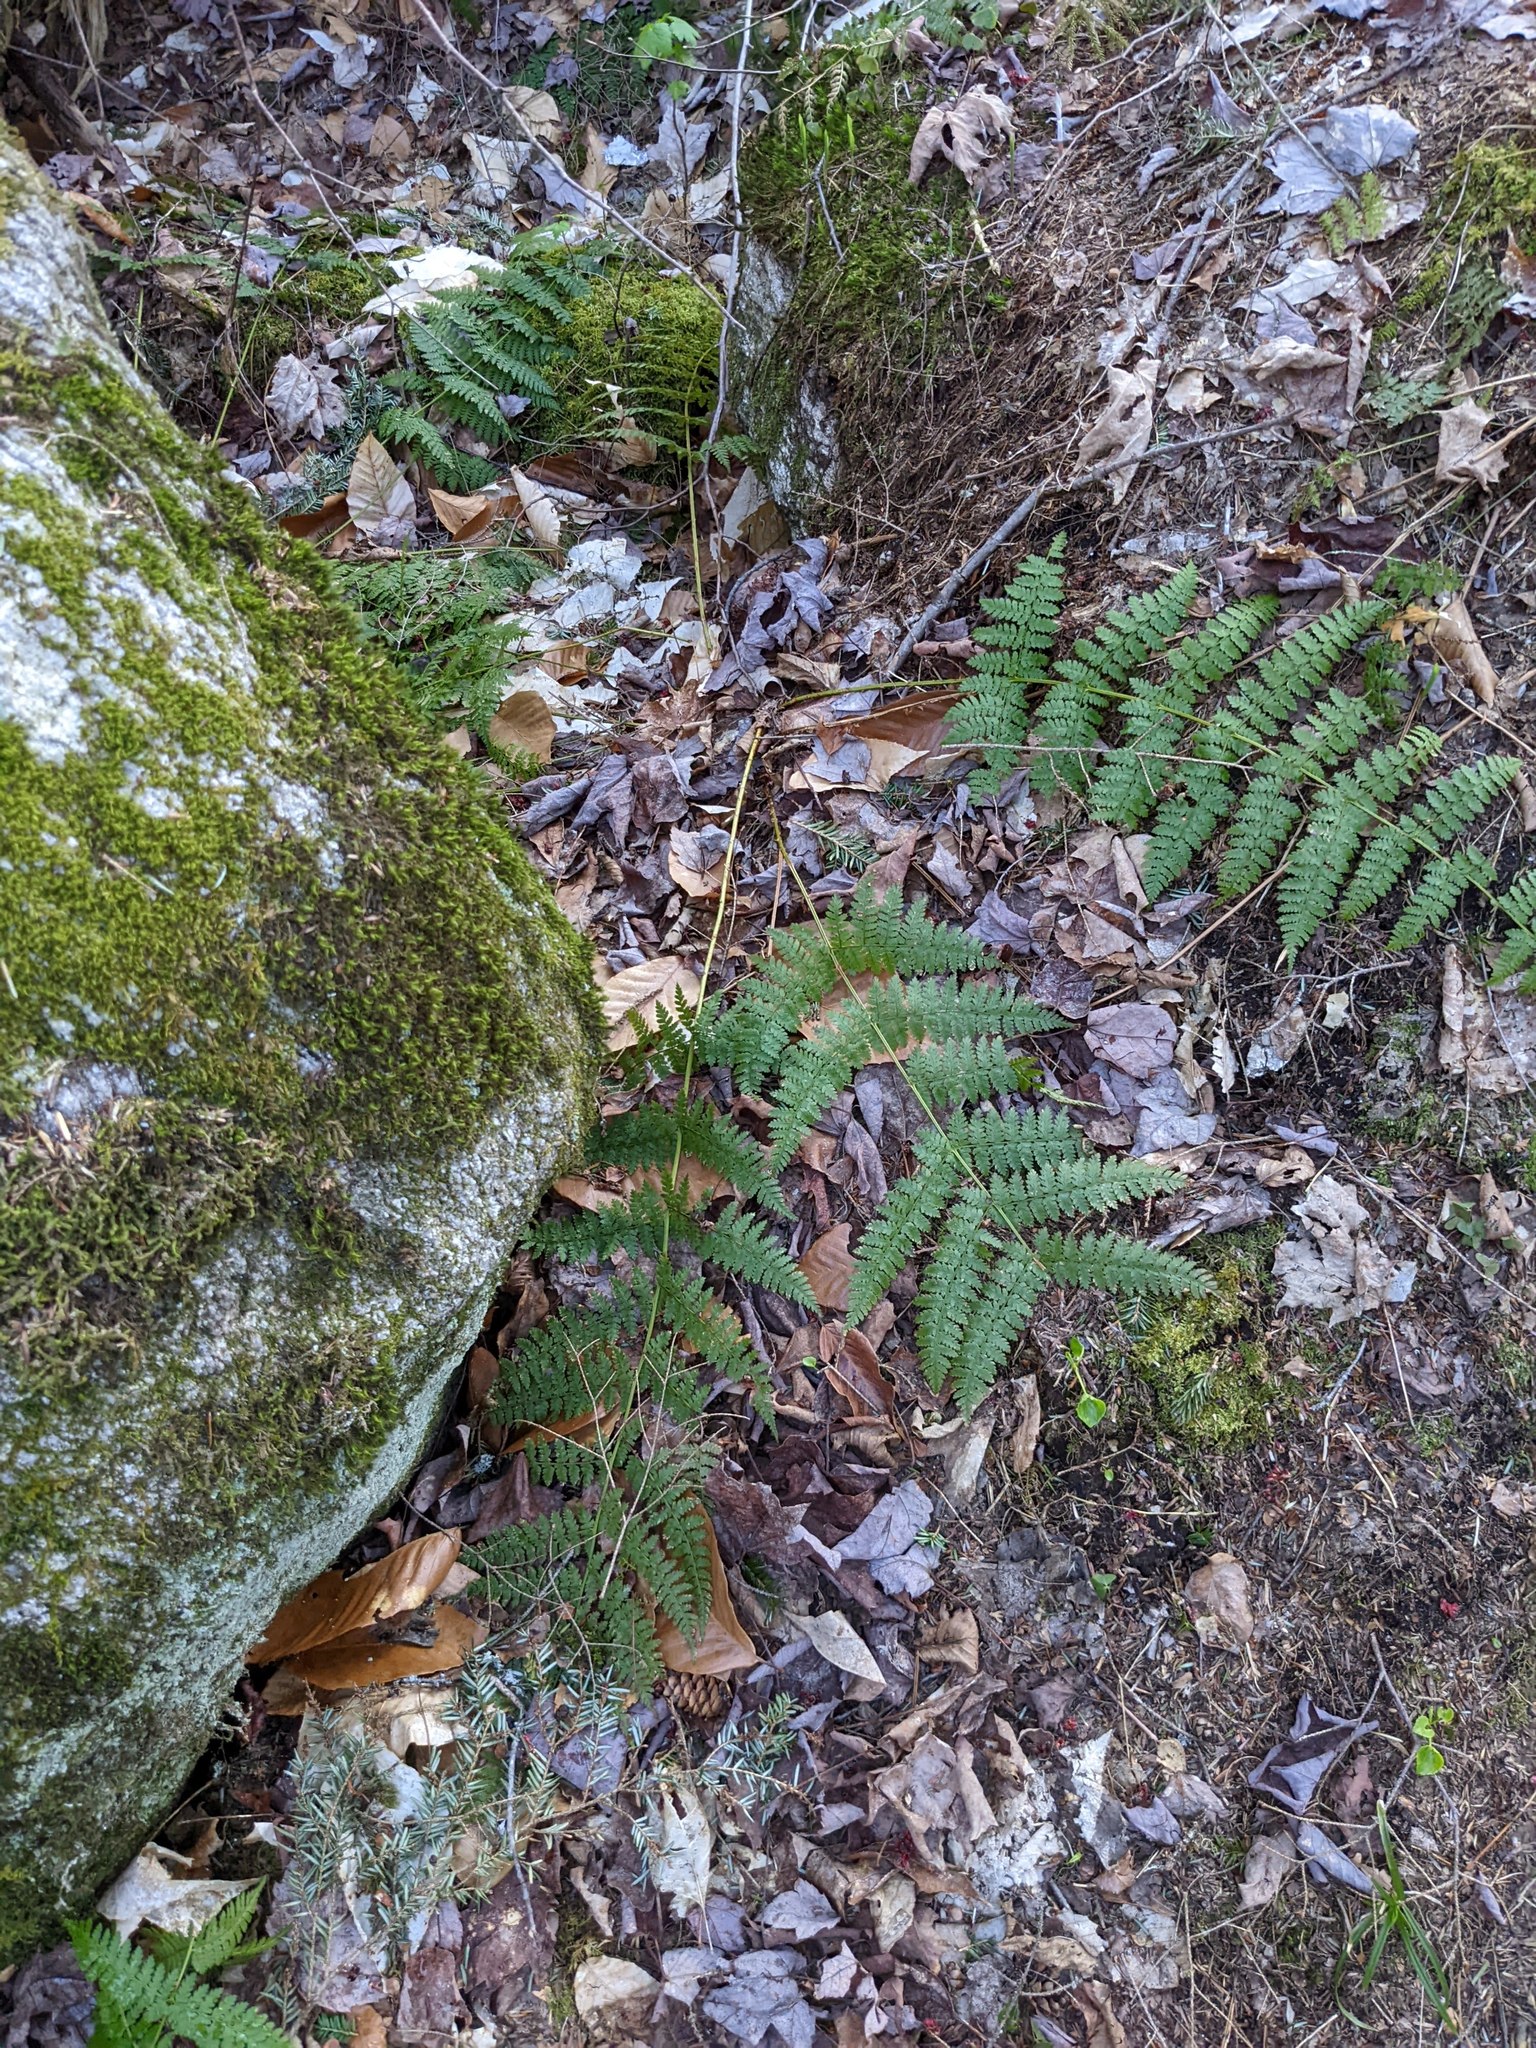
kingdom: Plantae
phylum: Tracheophyta
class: Polypodiopsida
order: Polypodiales
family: Dryopteridaceae
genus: Dryopteris
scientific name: Dryopteris intermedia
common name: Evergreen wood fern
